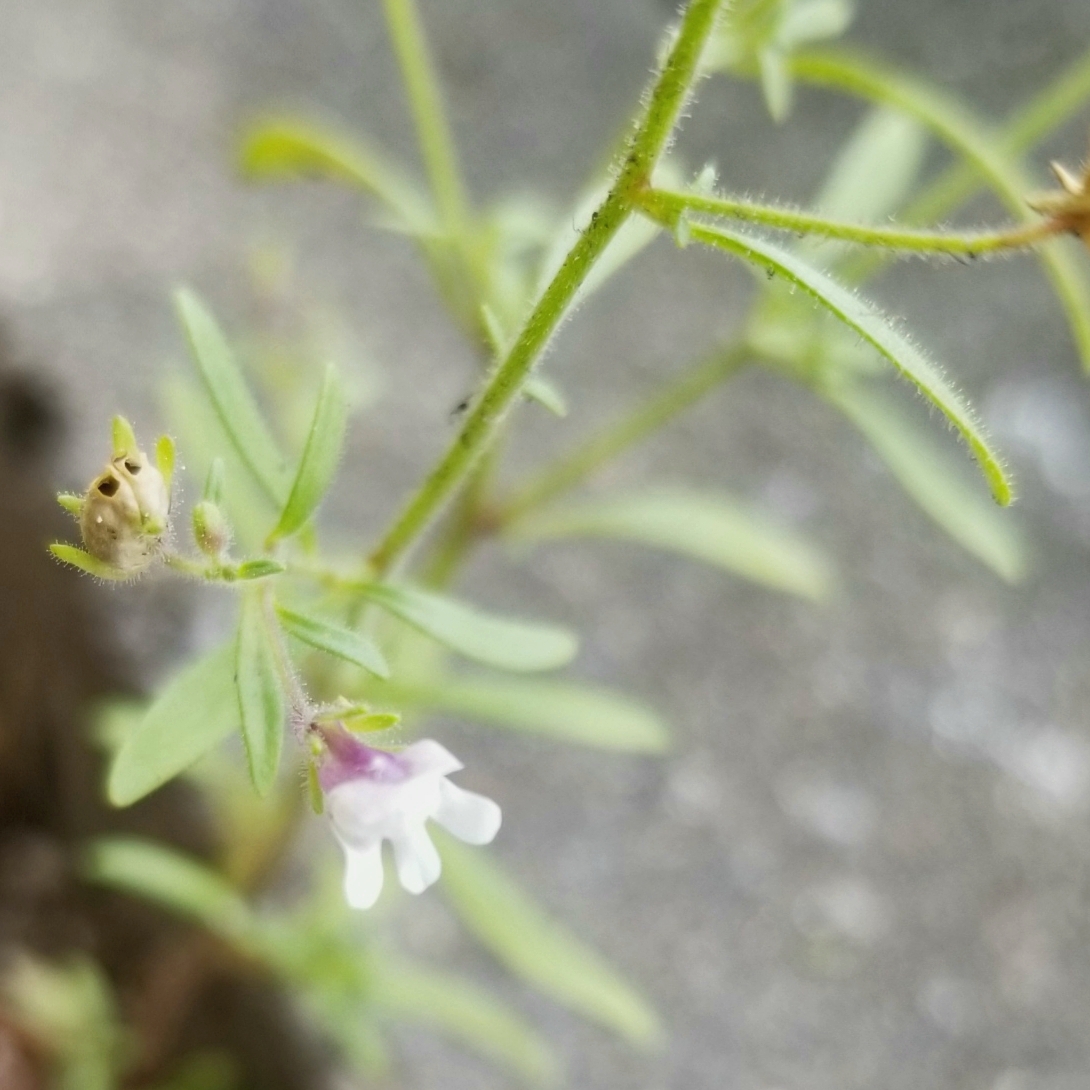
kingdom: Plantae
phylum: Tracheophyta
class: Magnoliopsida
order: Lamiales
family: Plantaginaceae
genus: Chaenorhinum
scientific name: Chaenorhinum minus
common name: Dwarf snapdragon
